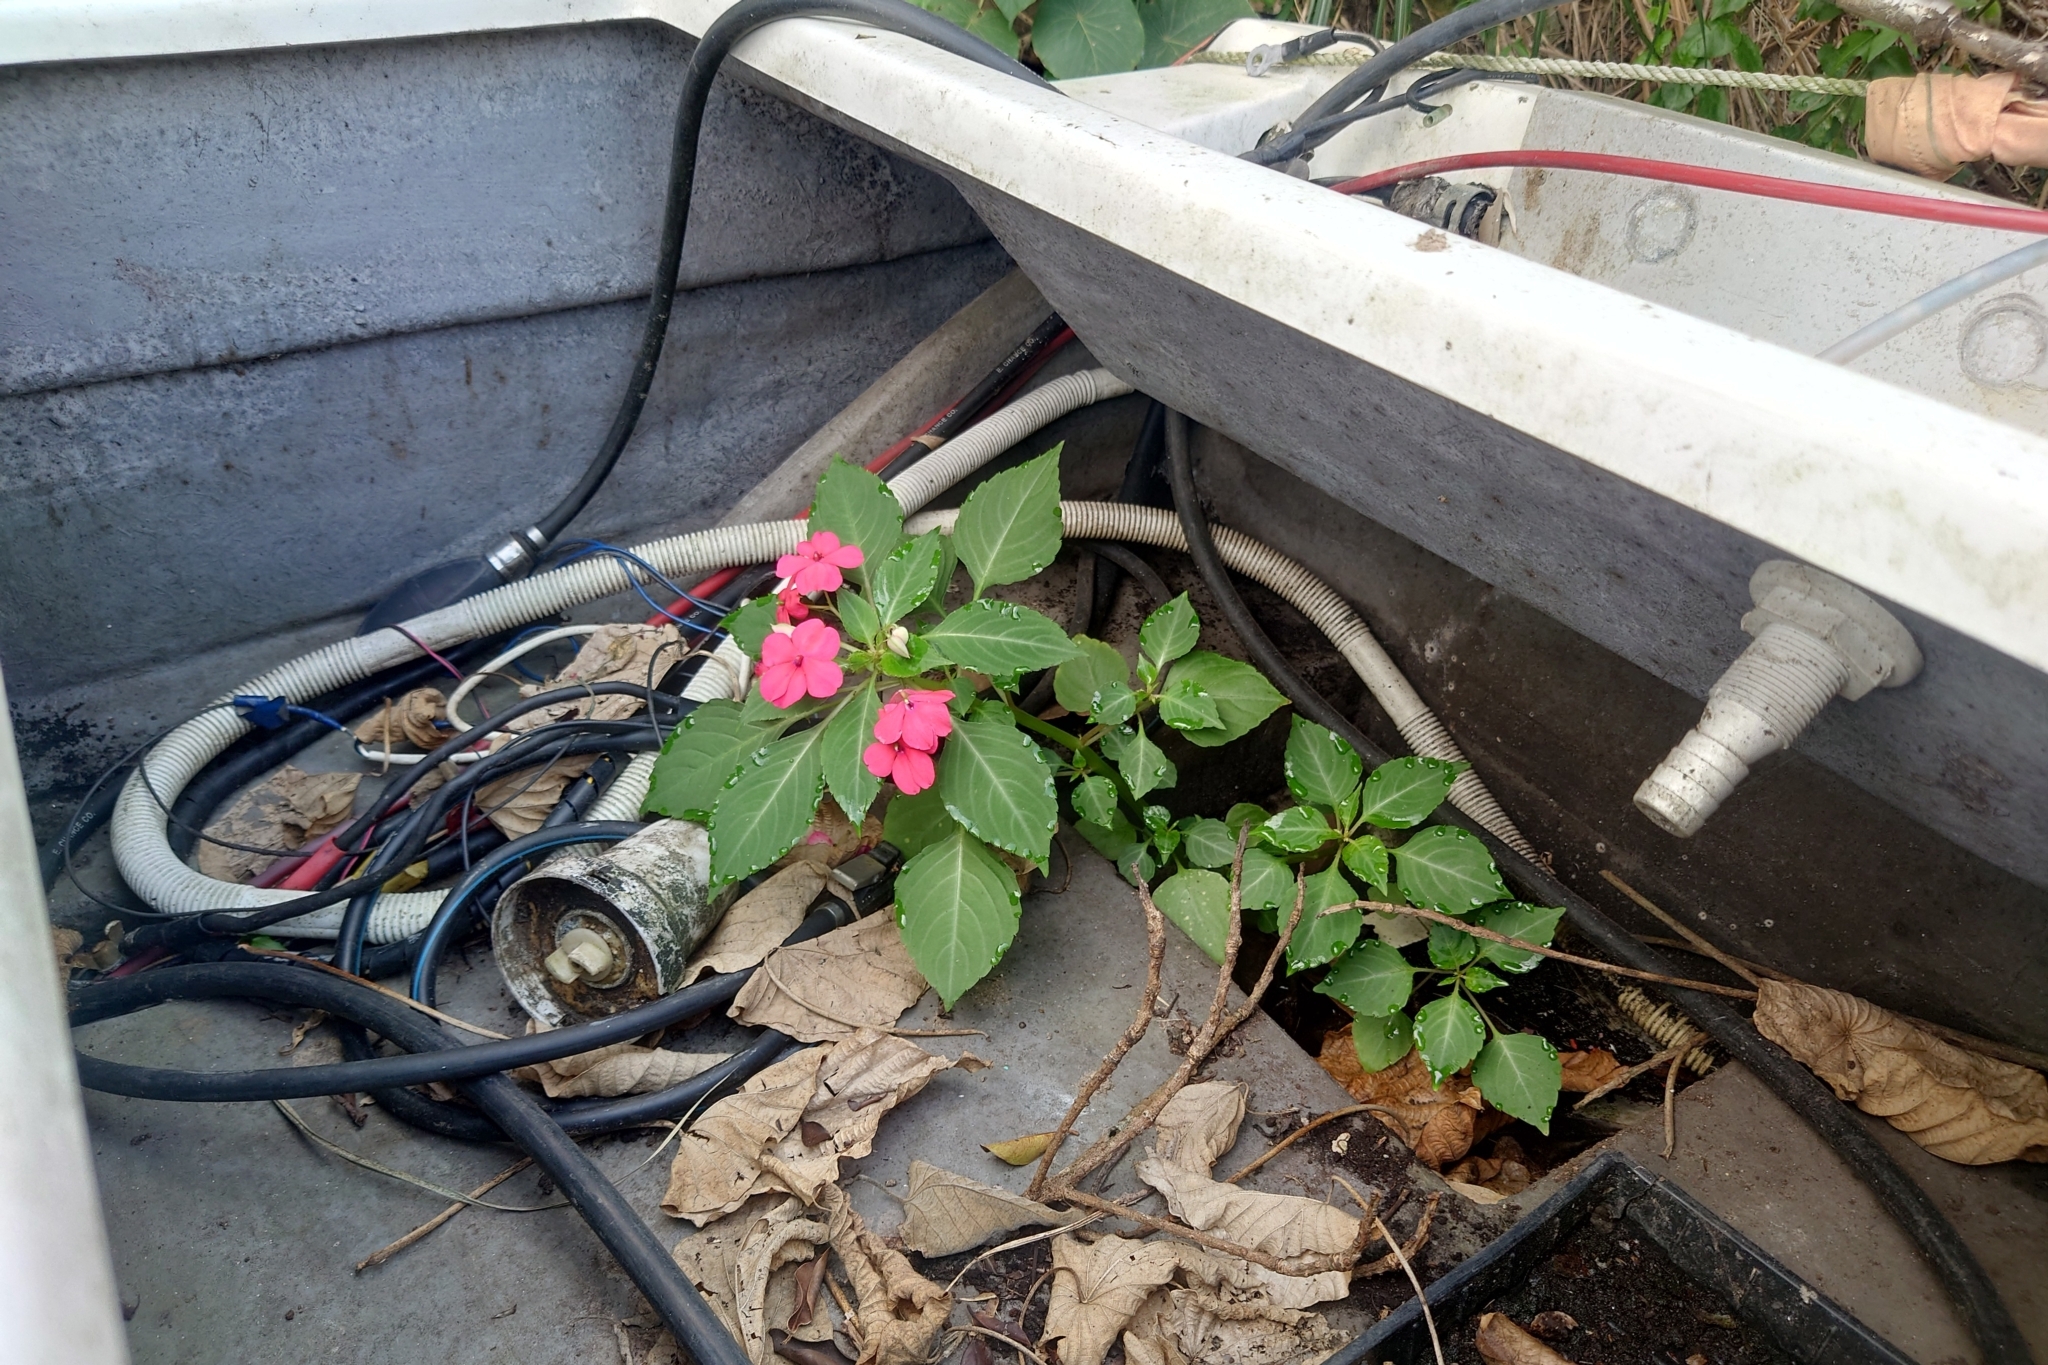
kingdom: Plantae
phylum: Tracheophyta
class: Magnoliopsida
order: Ericales
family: Balsaminaceae
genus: Impatiens
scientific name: Impatiens walleriana
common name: Buzzy lizzy
